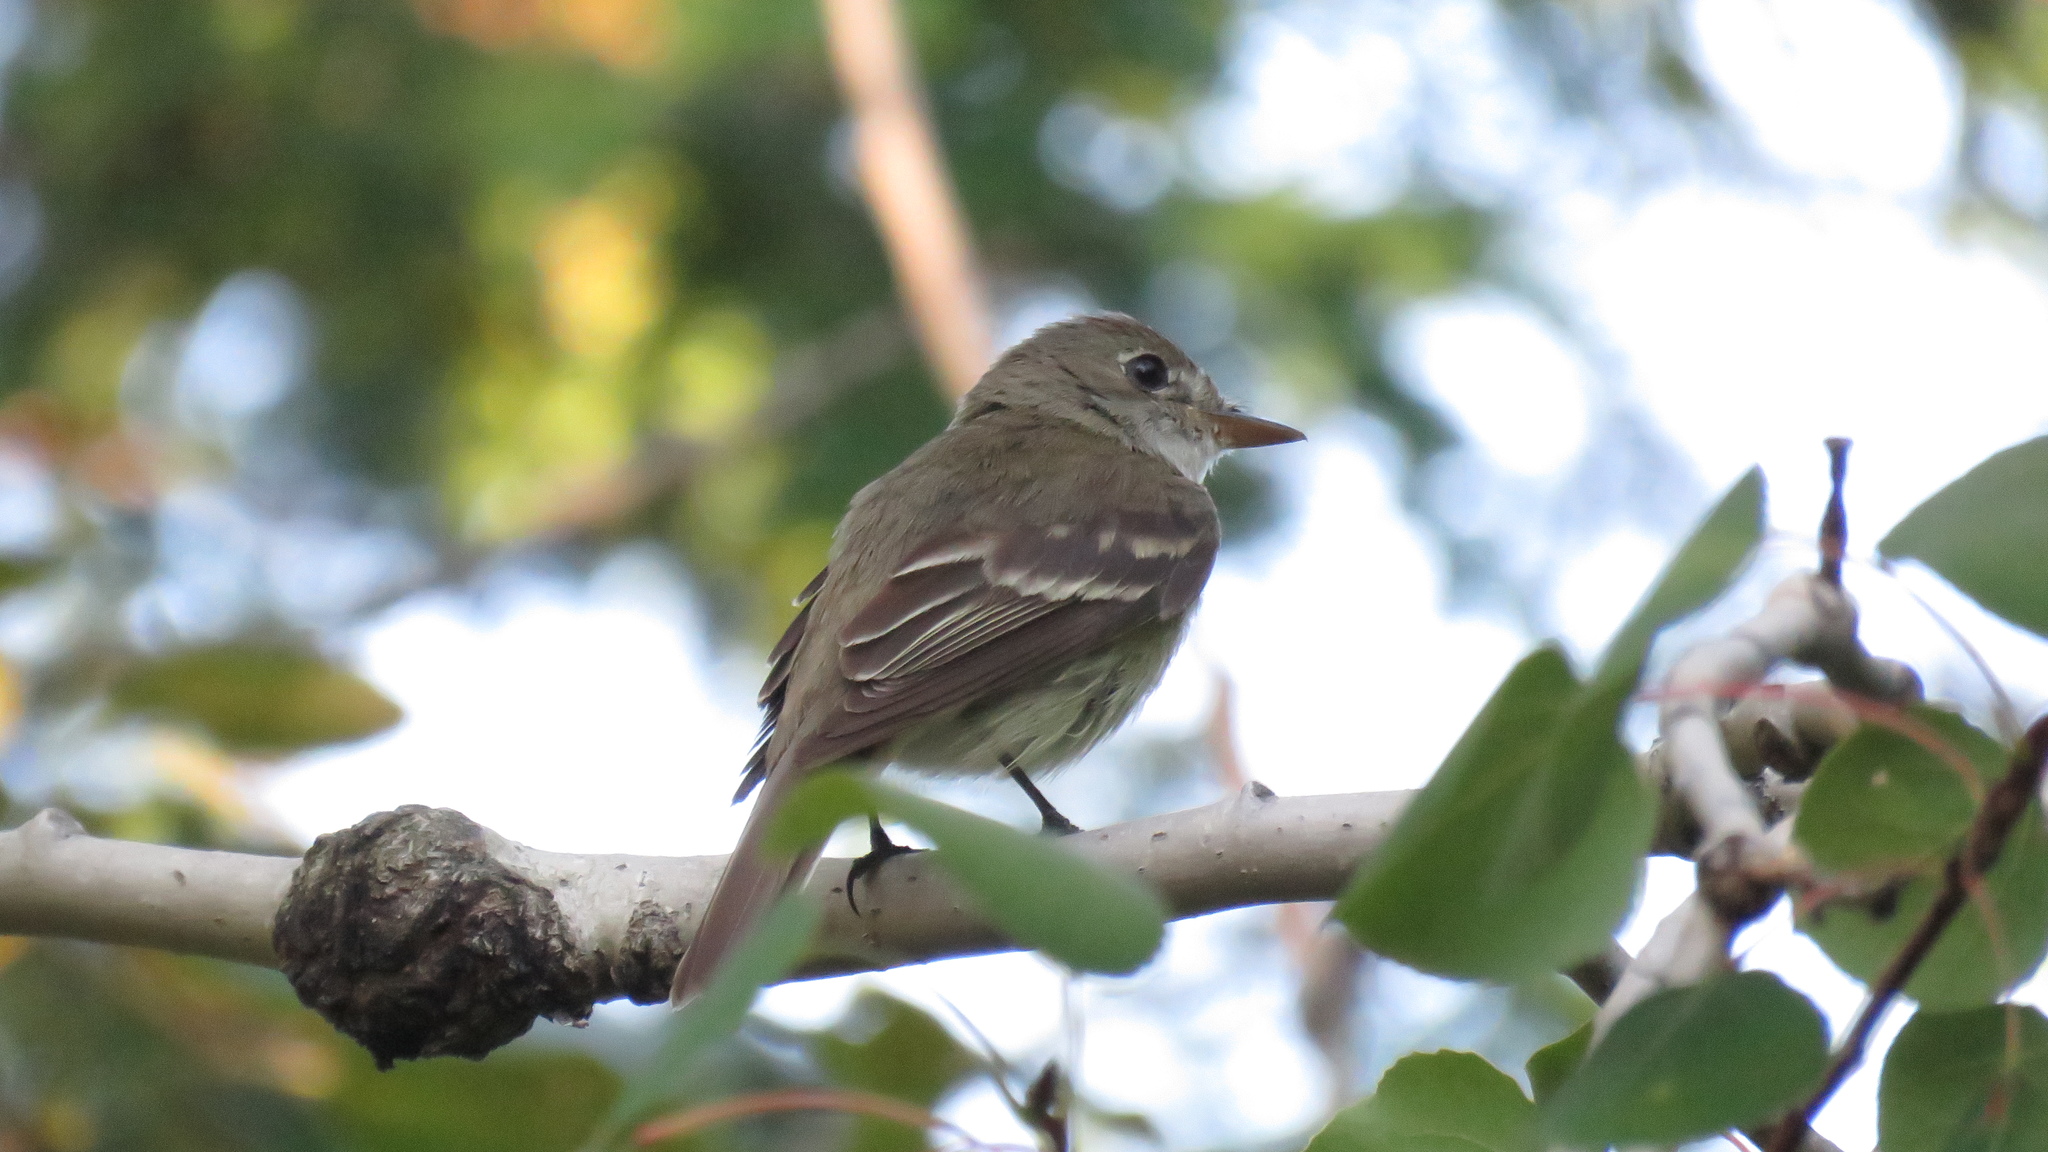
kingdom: Animalia
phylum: Chordata
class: Aves
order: Passeriformes
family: Tyrannidae
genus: Empidonax
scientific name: Empidonax alnorum
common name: Alder flycatcher
